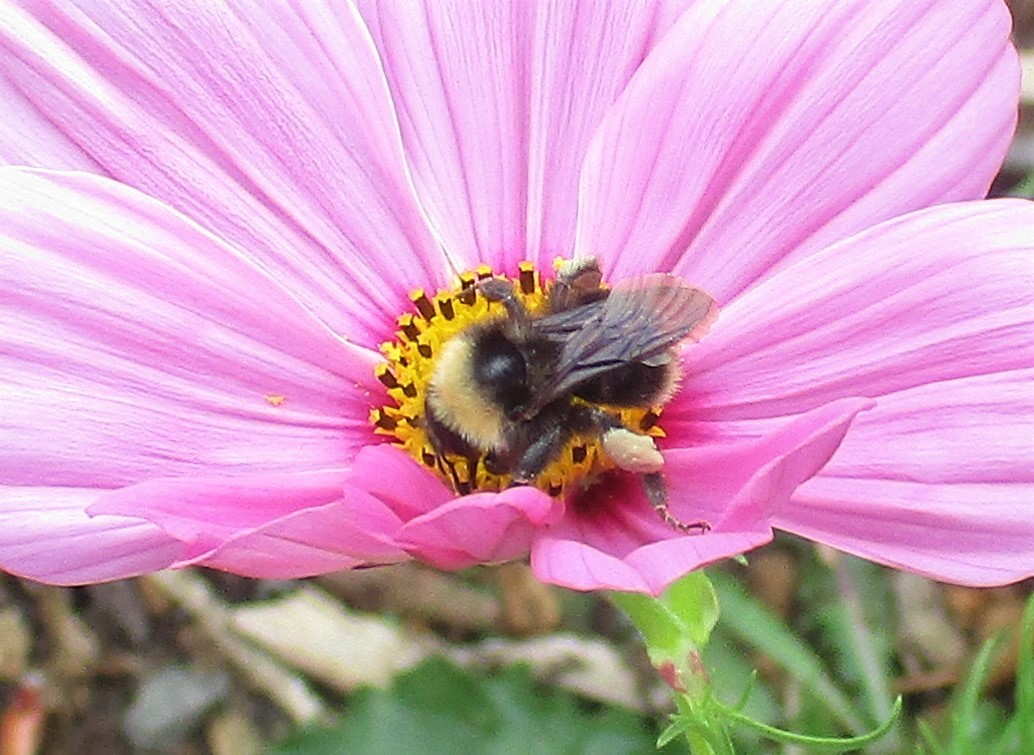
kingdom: Animalia
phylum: Arthropoda
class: Insecta
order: Hymenoptera
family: Apidae
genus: Bombus
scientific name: Bombus californicus
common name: California bumble bee
